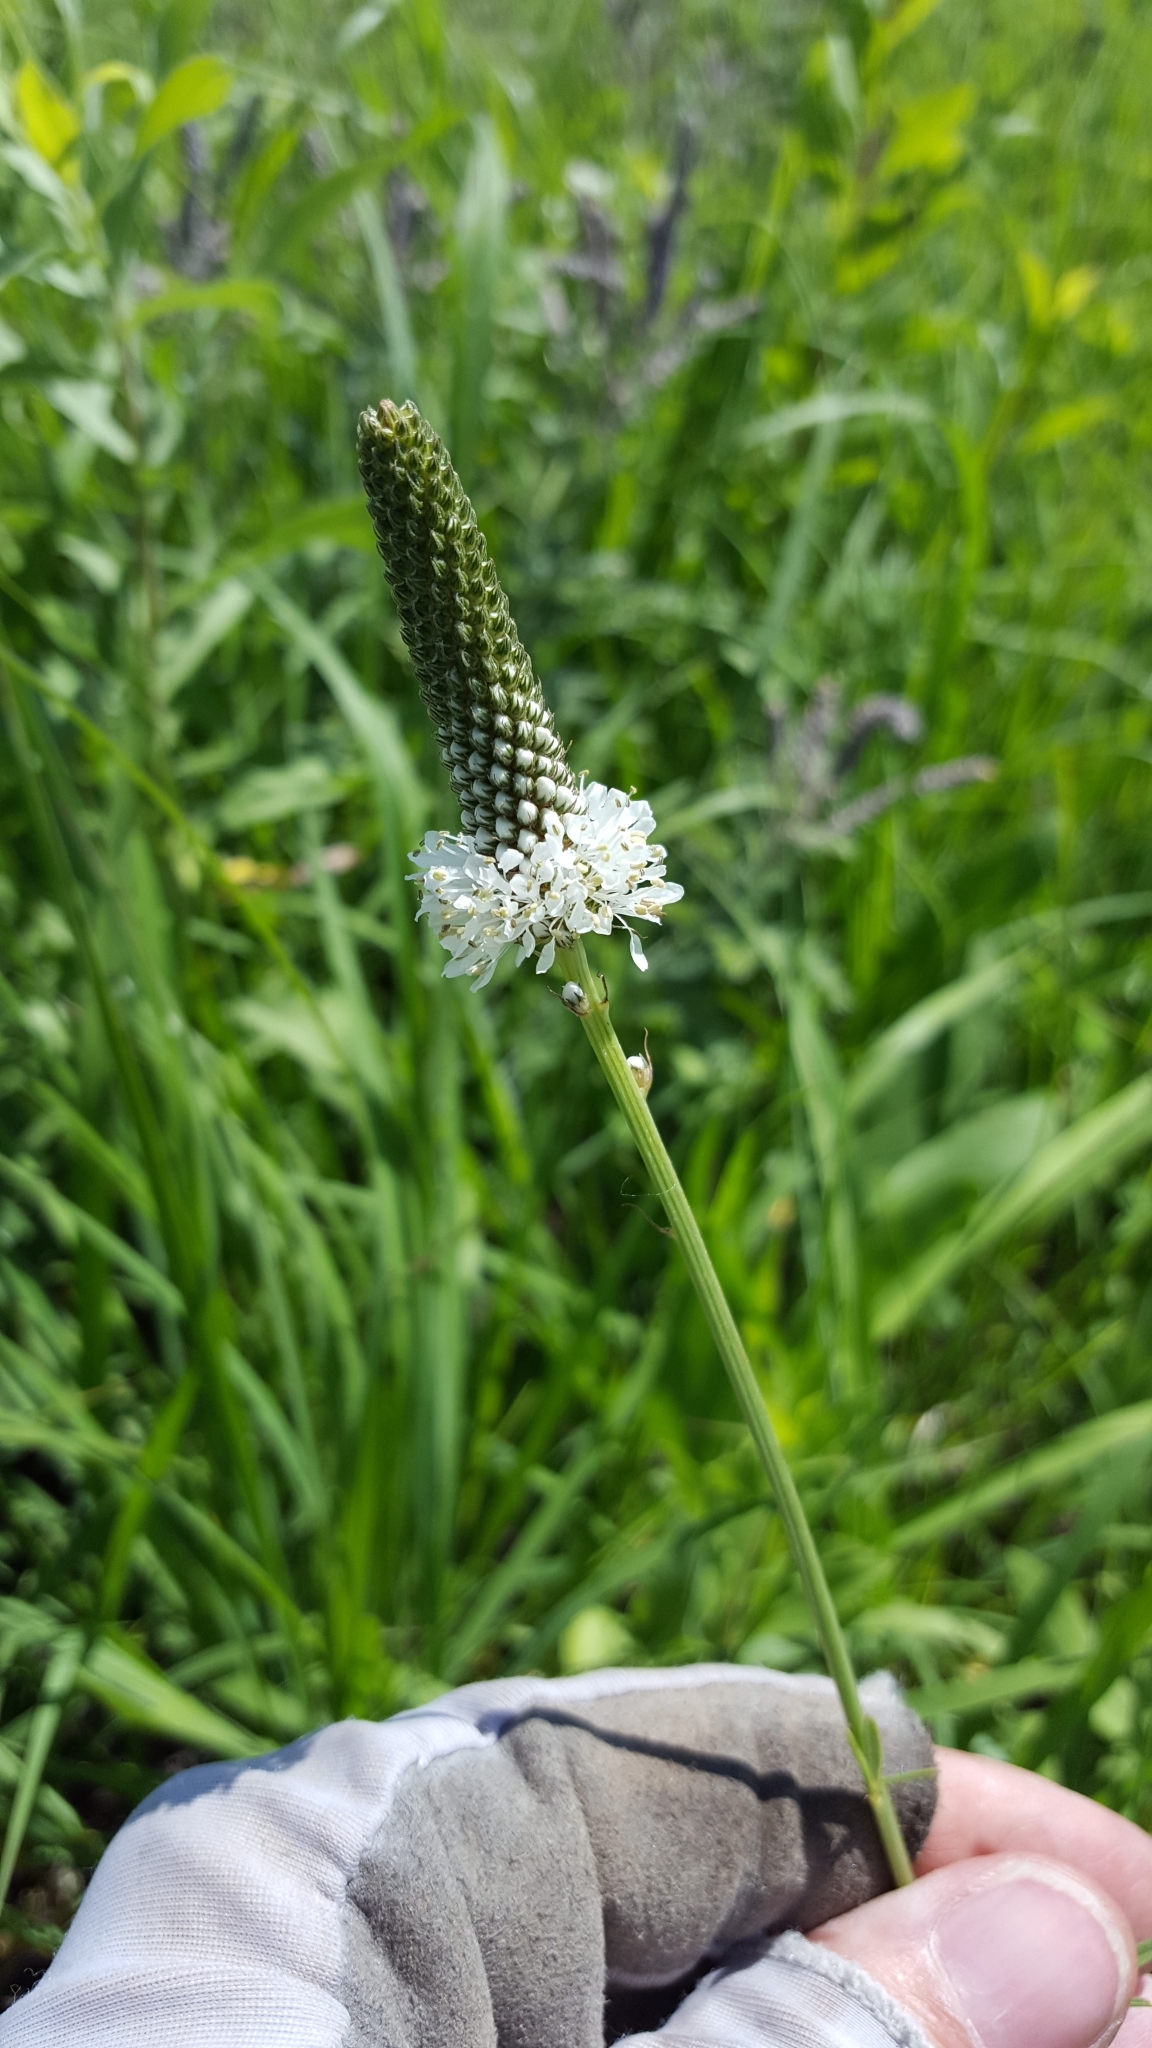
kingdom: Plantae
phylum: Tracheophyta
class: Magnoliopsida
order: Fabales
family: Fabaceae
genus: Dalea
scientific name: Dalea candida
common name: White prairie-clover
